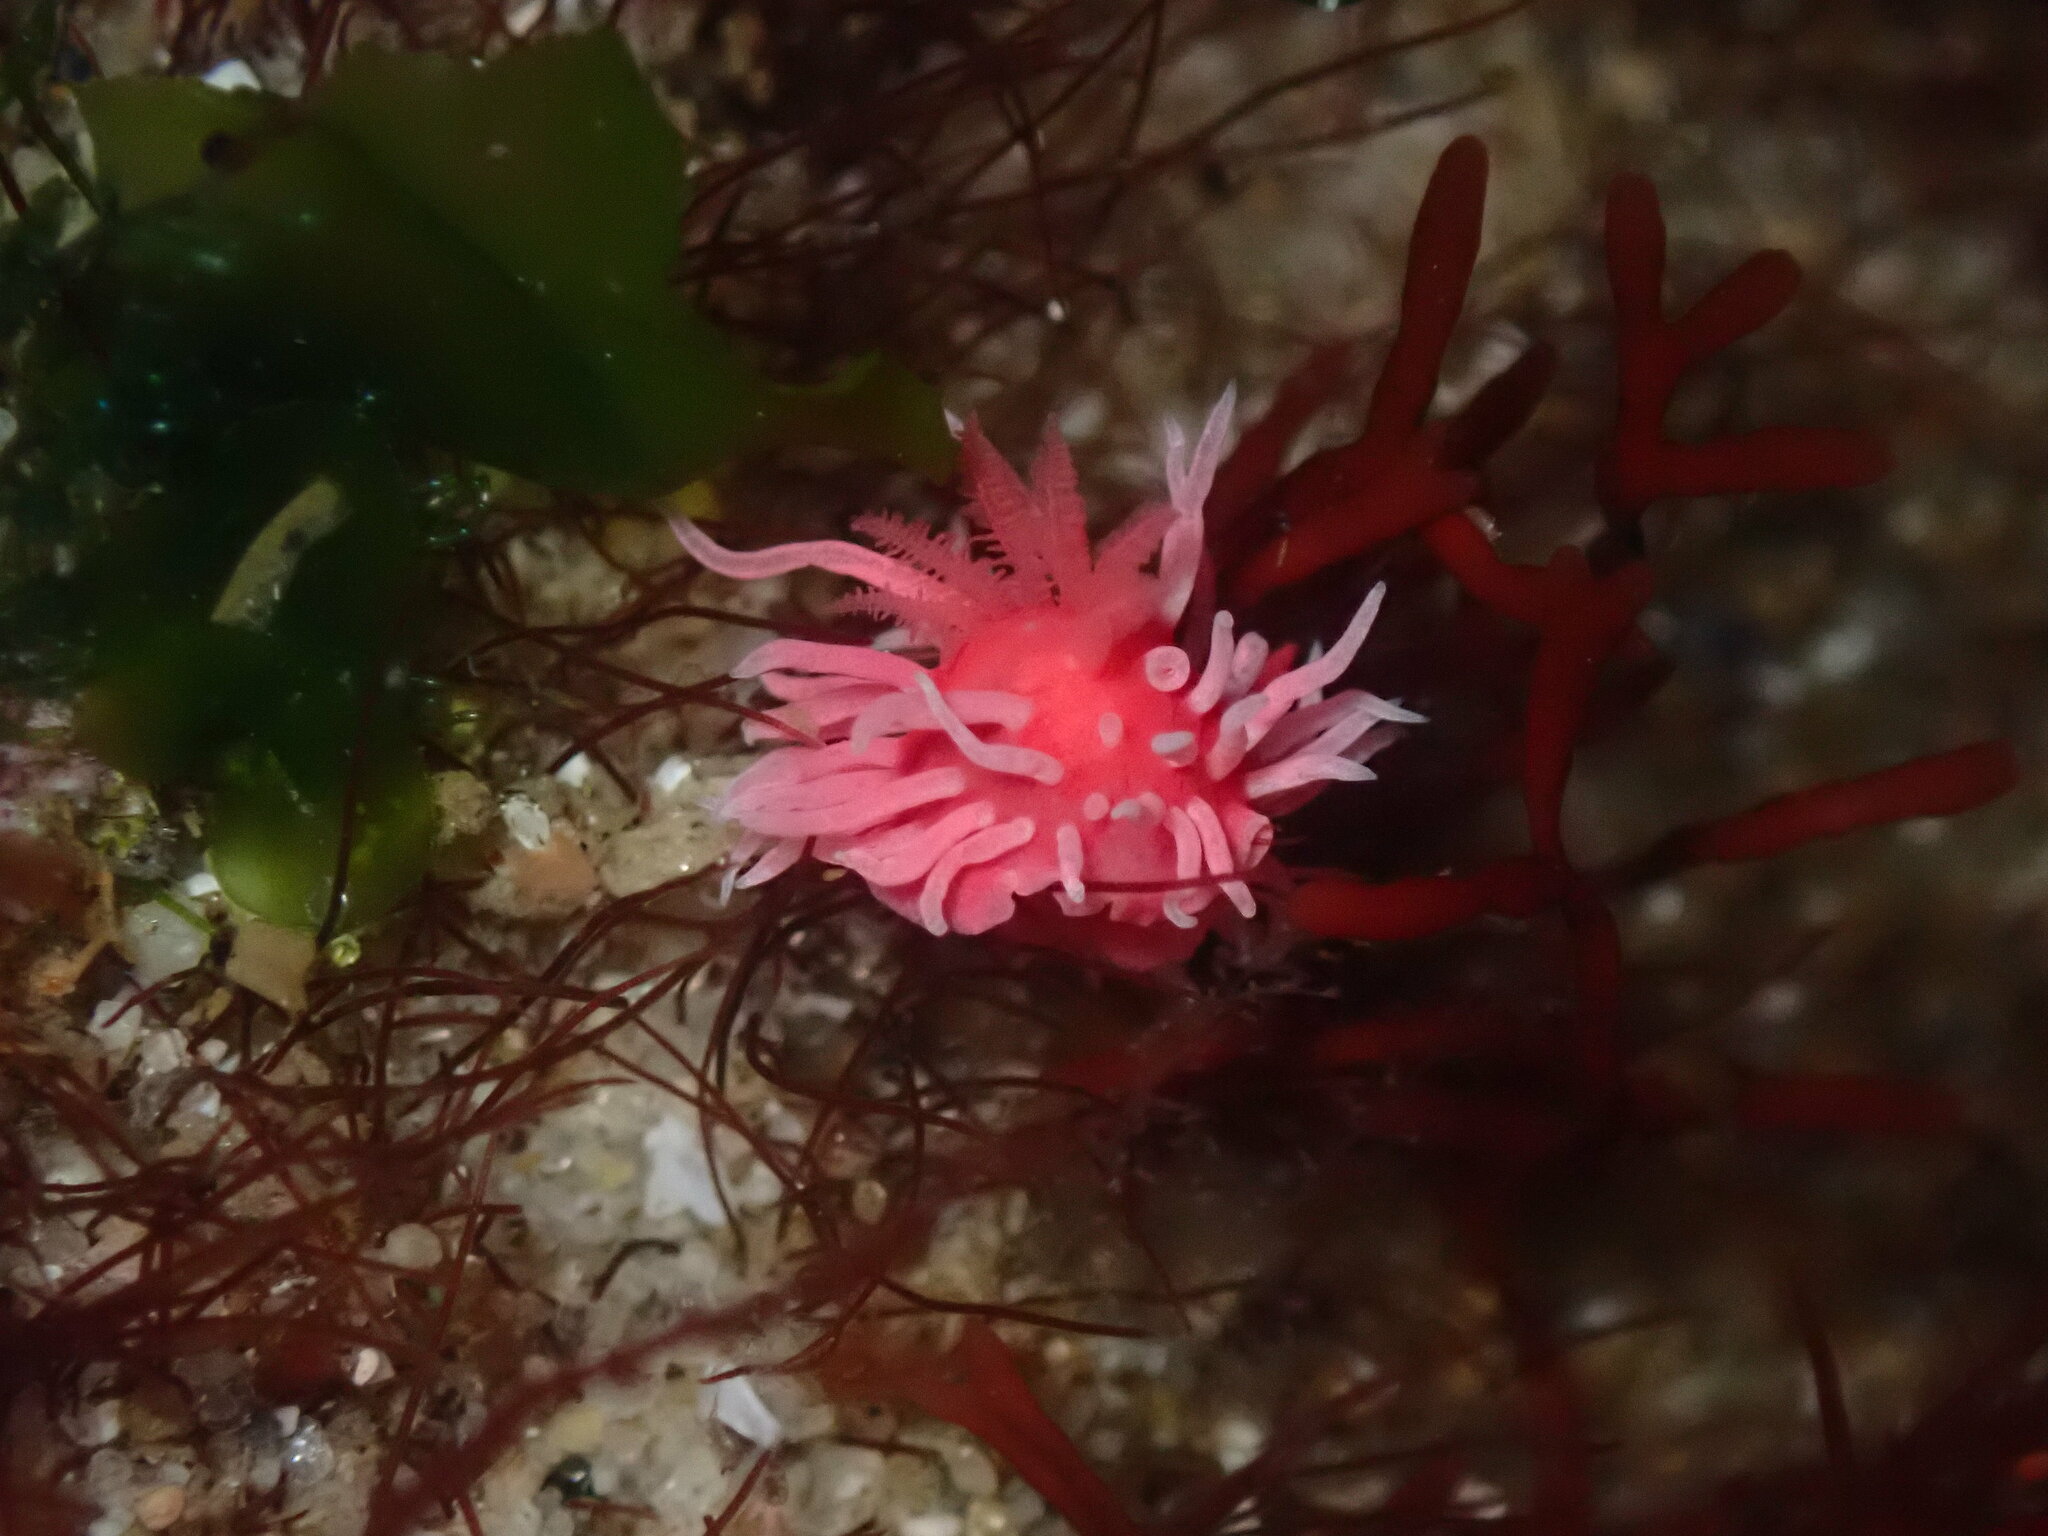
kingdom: Animalia
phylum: Mollusca
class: Gastropoda
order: Nudibranchia
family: Goniodorididae
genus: Okenia
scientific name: Okenia
